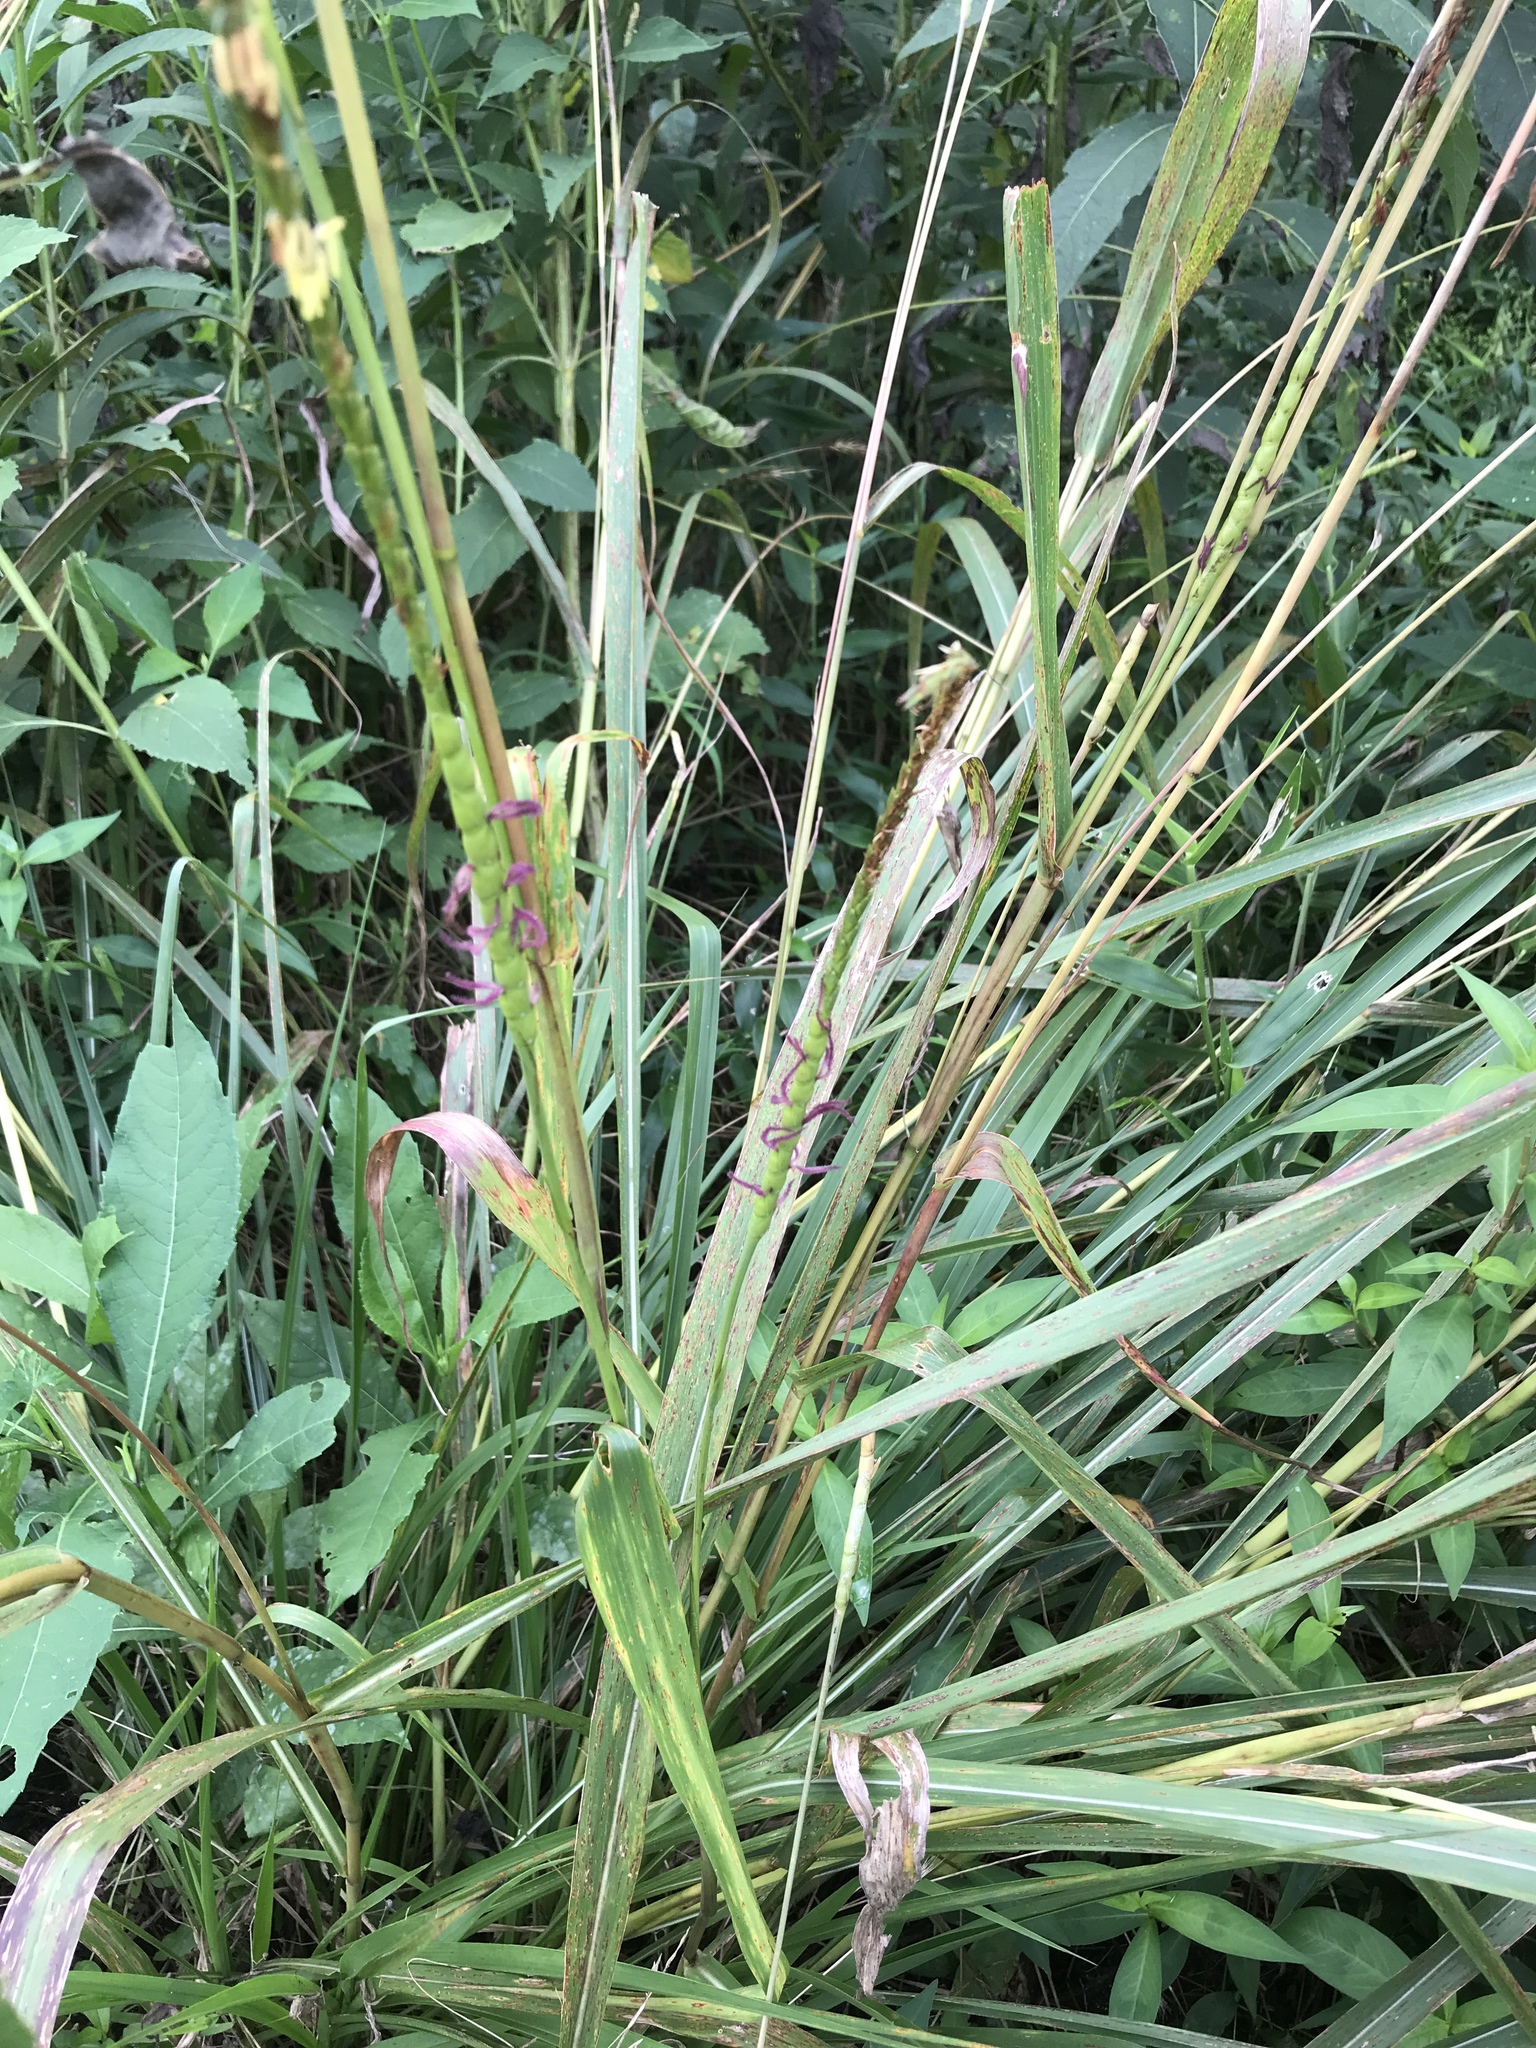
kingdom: Plantae
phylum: Tracheophyta
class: Liliopsida
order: Poales
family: Poaceae
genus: Tripsacum
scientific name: Tripsacum dactyloides
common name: Buffalo-grass
